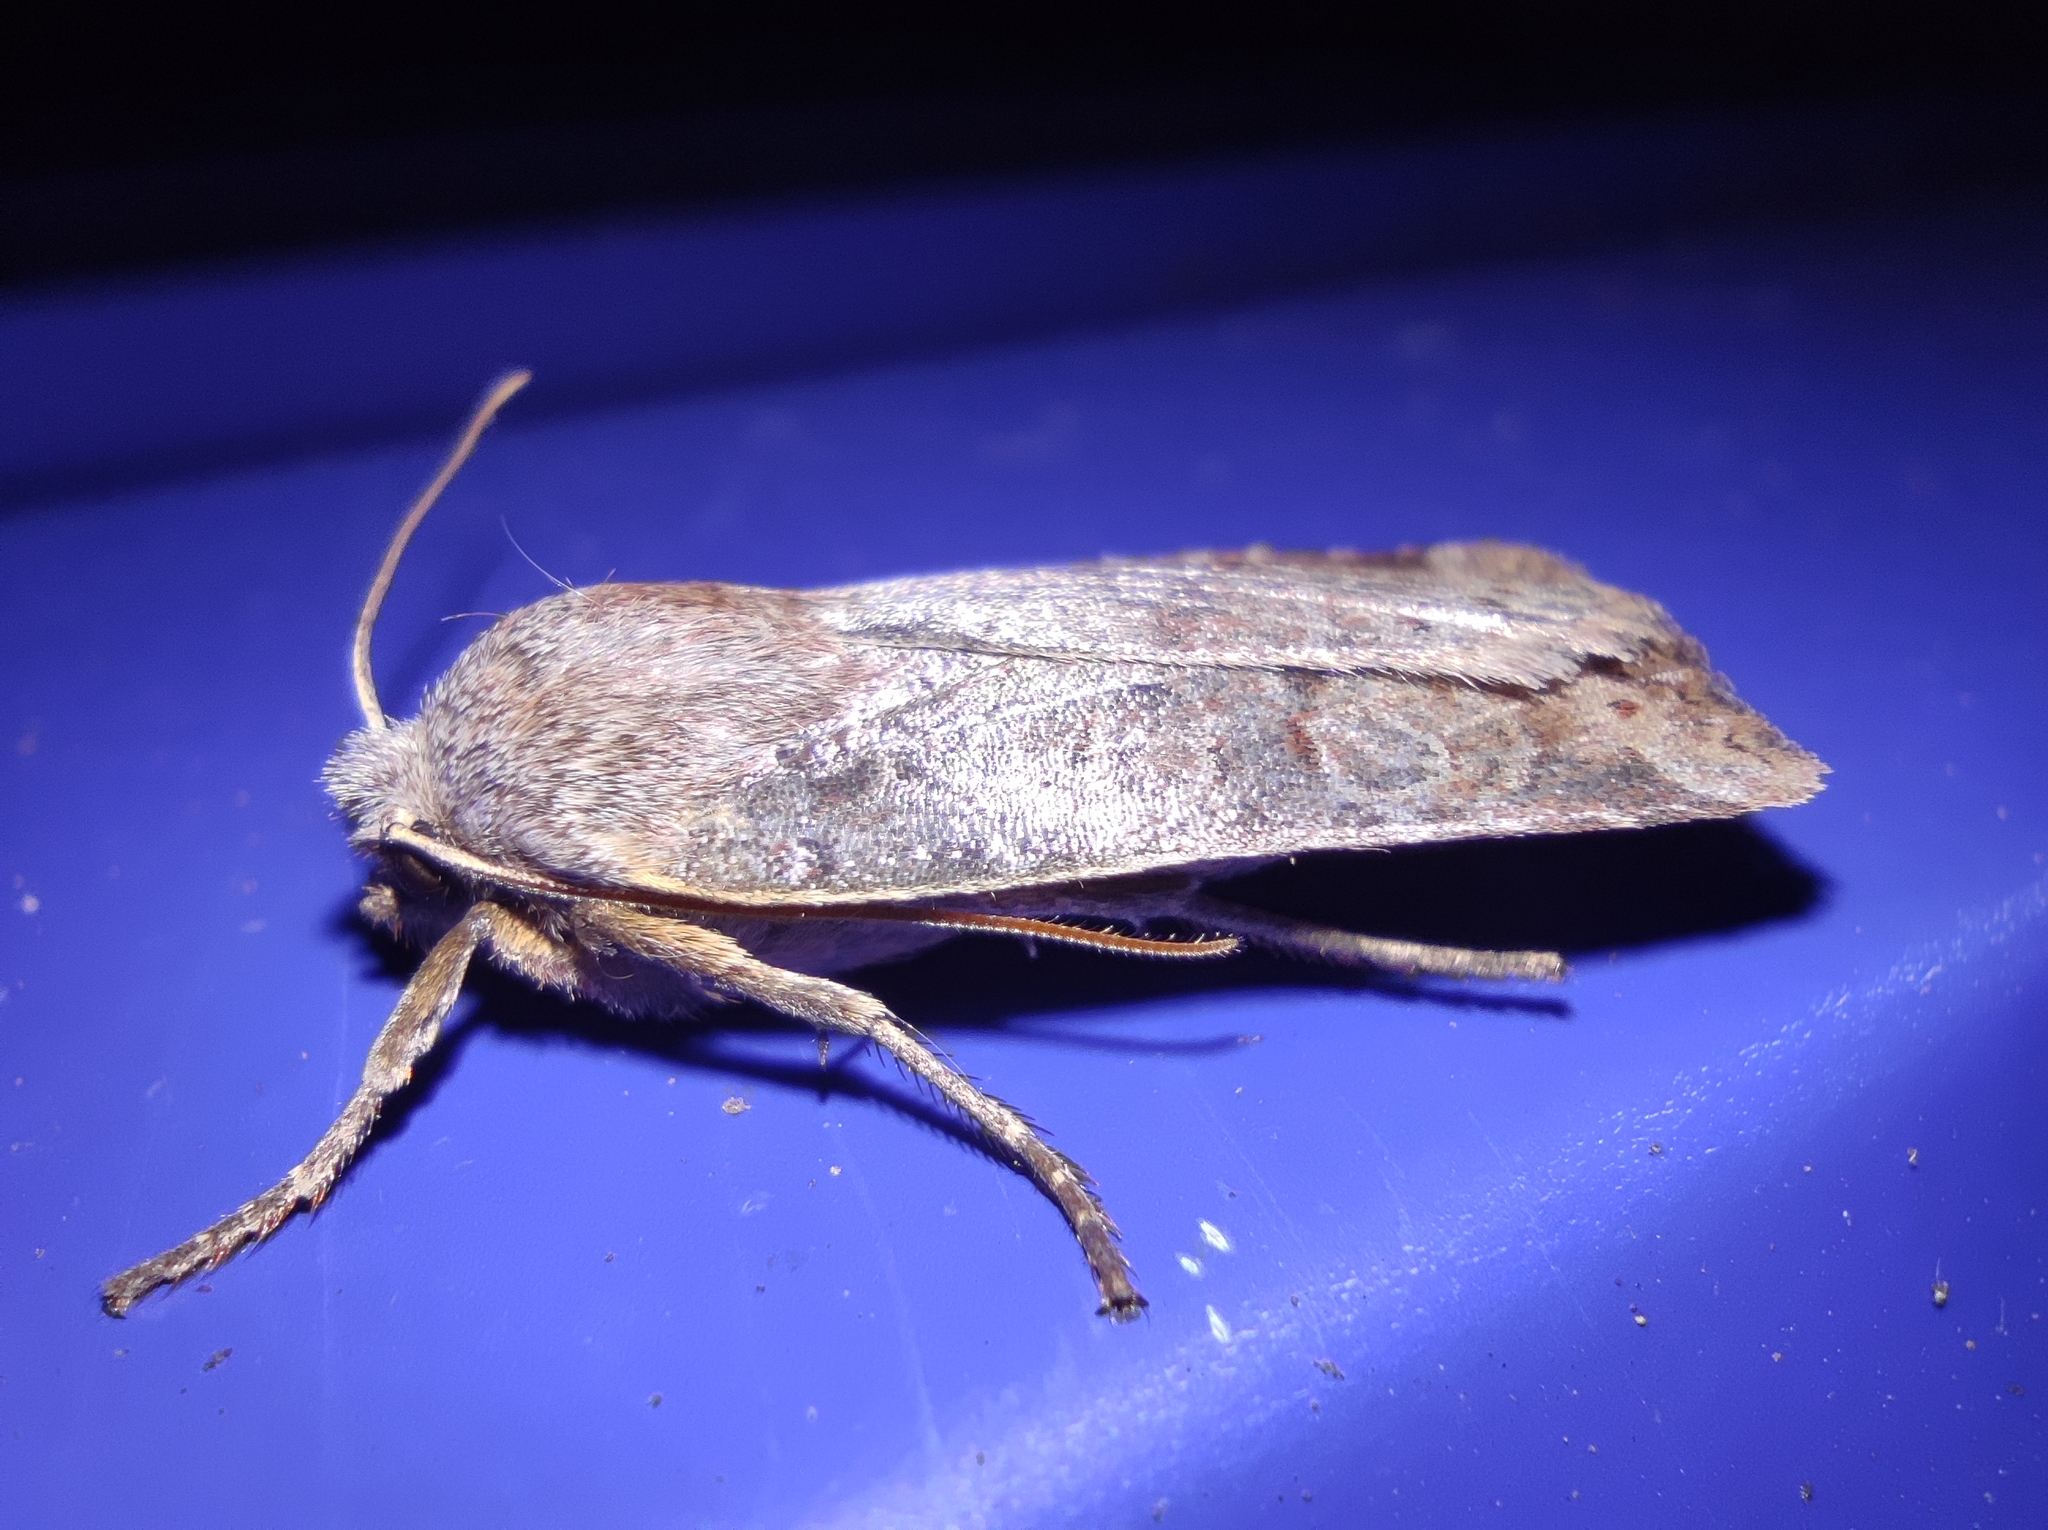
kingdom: Animalia
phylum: Arthropoda
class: Insecta
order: Lepidoptera
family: Noctuidae
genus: Conistra
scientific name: Conistra vaccinii
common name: Chestnut
